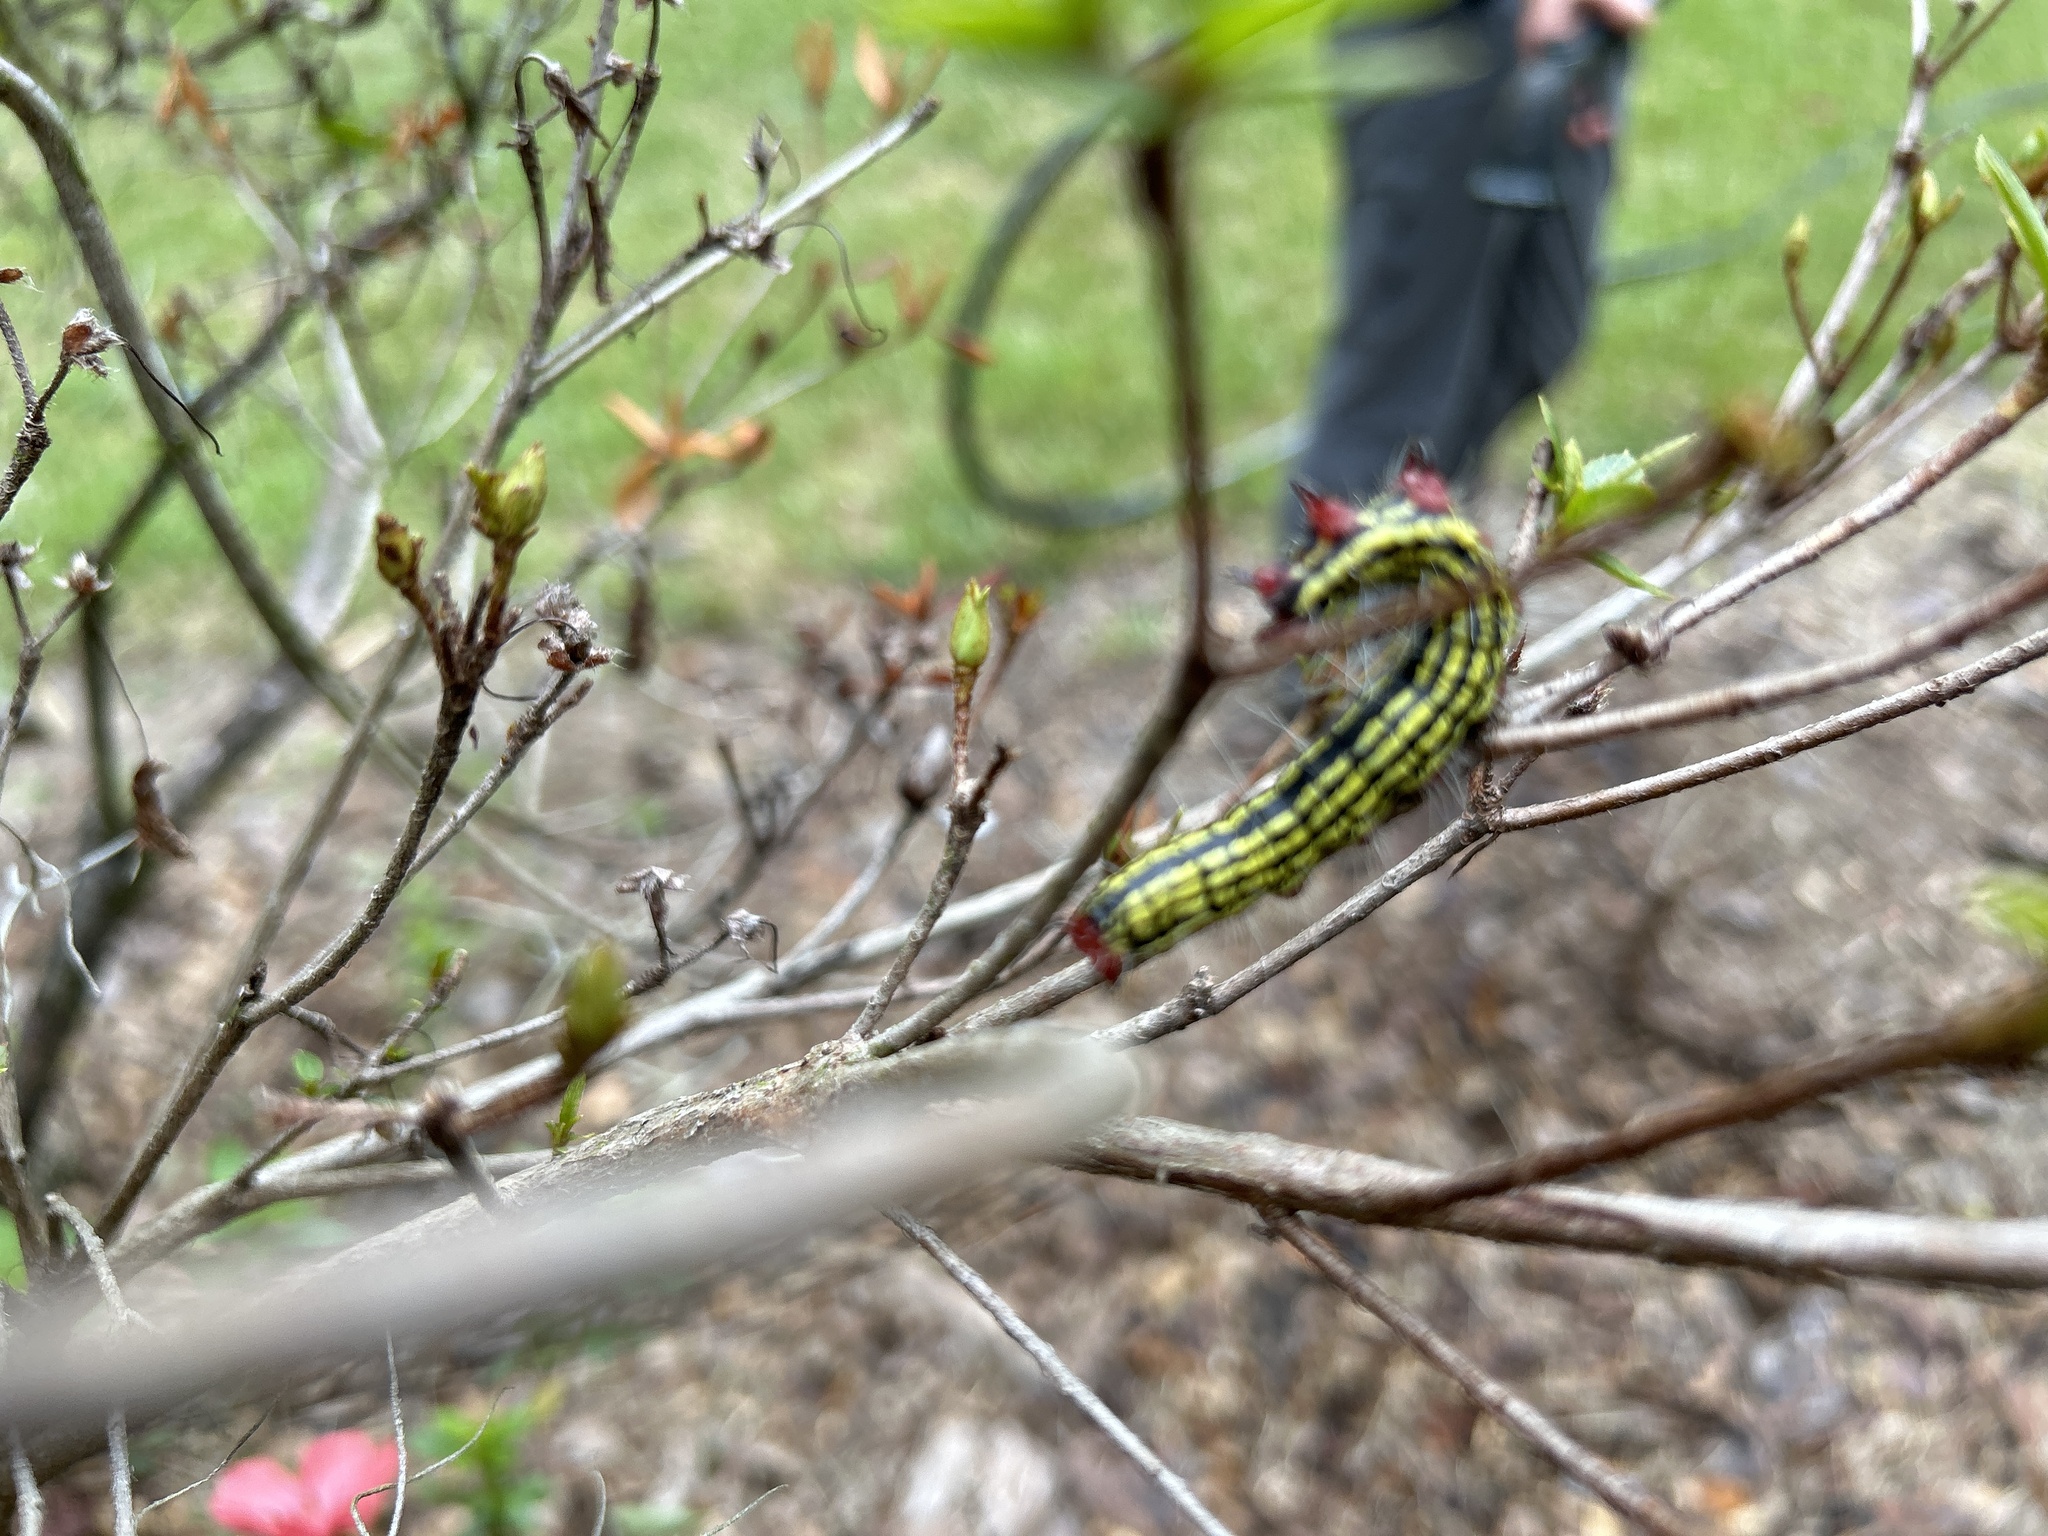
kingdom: Animalia
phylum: Arthropoda
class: Insecta
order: Lepidoptera
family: Saturniidae
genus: Dryocampa
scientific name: Dryocampa rubicunda
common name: Rosy maple moth
